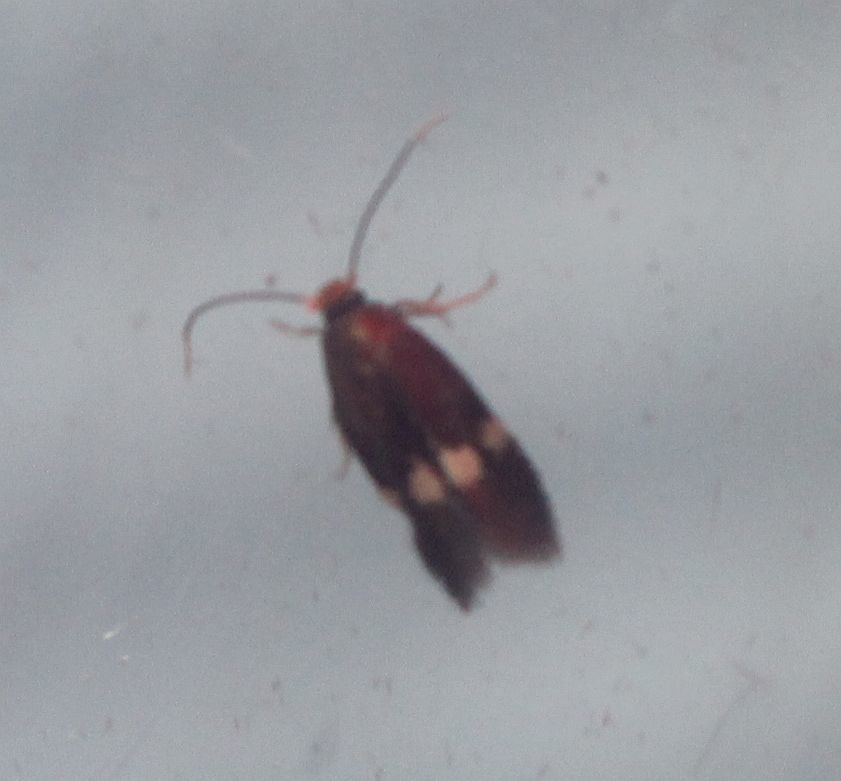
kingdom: Animalia
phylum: Arthropoda
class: Insecta
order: Lepidoptera
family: Nepticulidae
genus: Stigmella
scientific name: Stigmella aurella
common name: Golden pigmy
